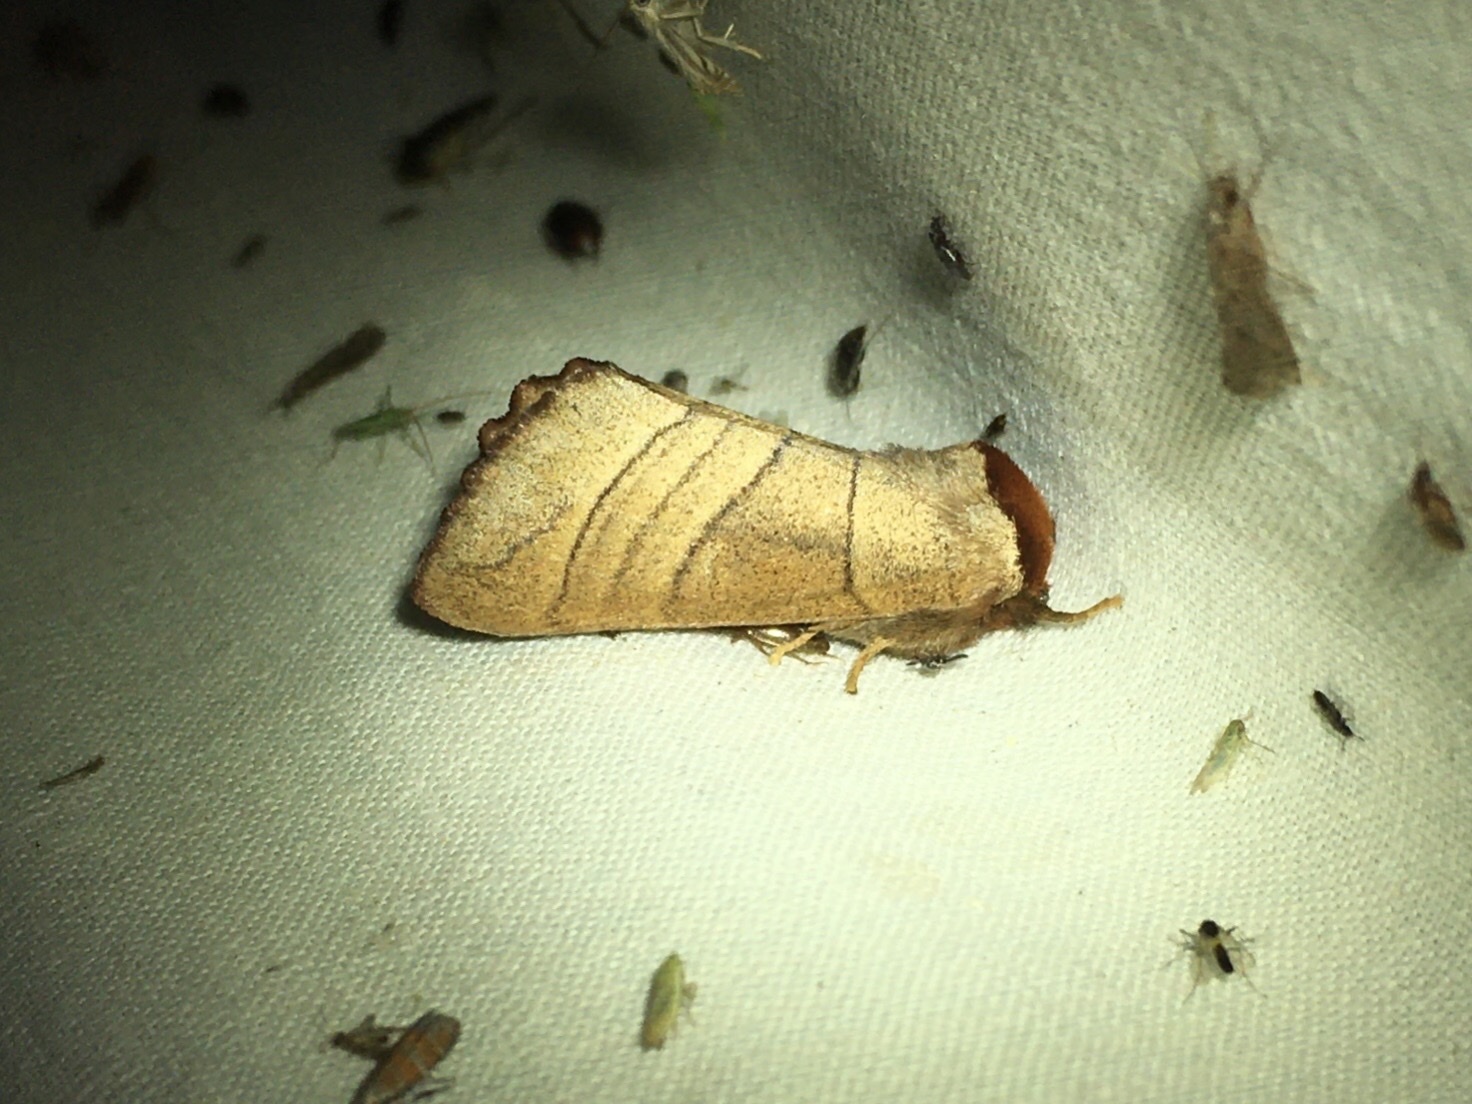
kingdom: Animalia
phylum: Arthropoda
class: Insecta
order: Lepidoptera
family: Notodontidae
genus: Datana
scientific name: Datana ministra
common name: Yellow-necked caterpillar moth
